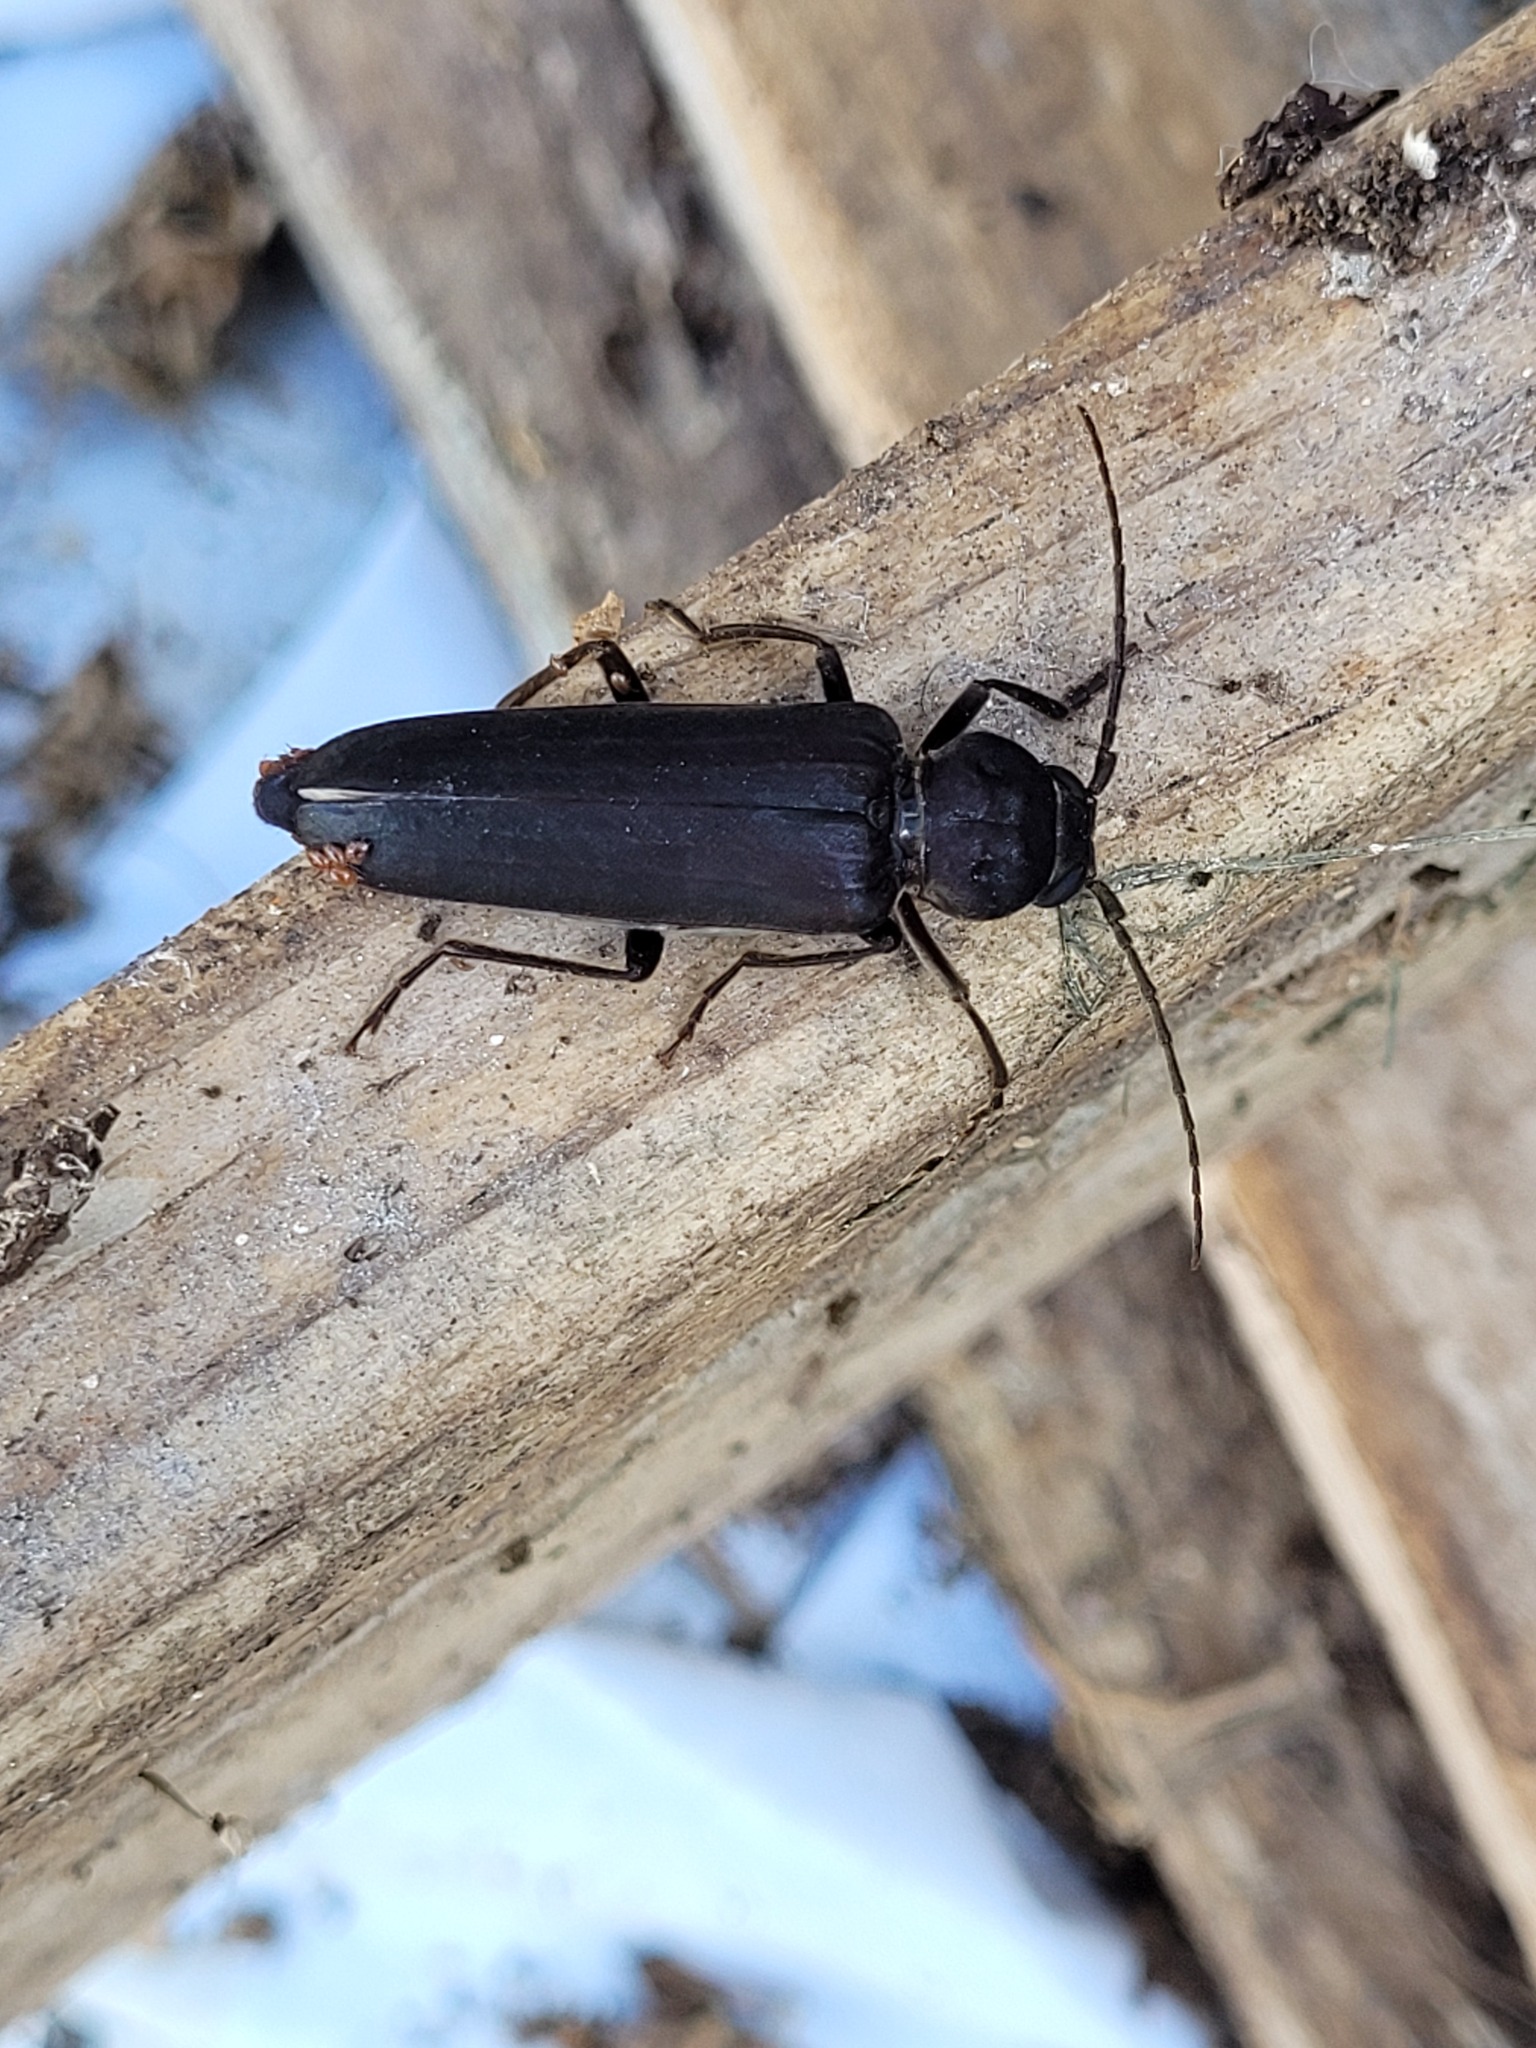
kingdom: Animalia
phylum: Arthropoda
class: Insecta
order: Coleoptera
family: Cerambycidae
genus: Arhopalus
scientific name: Arhopalus ferus
